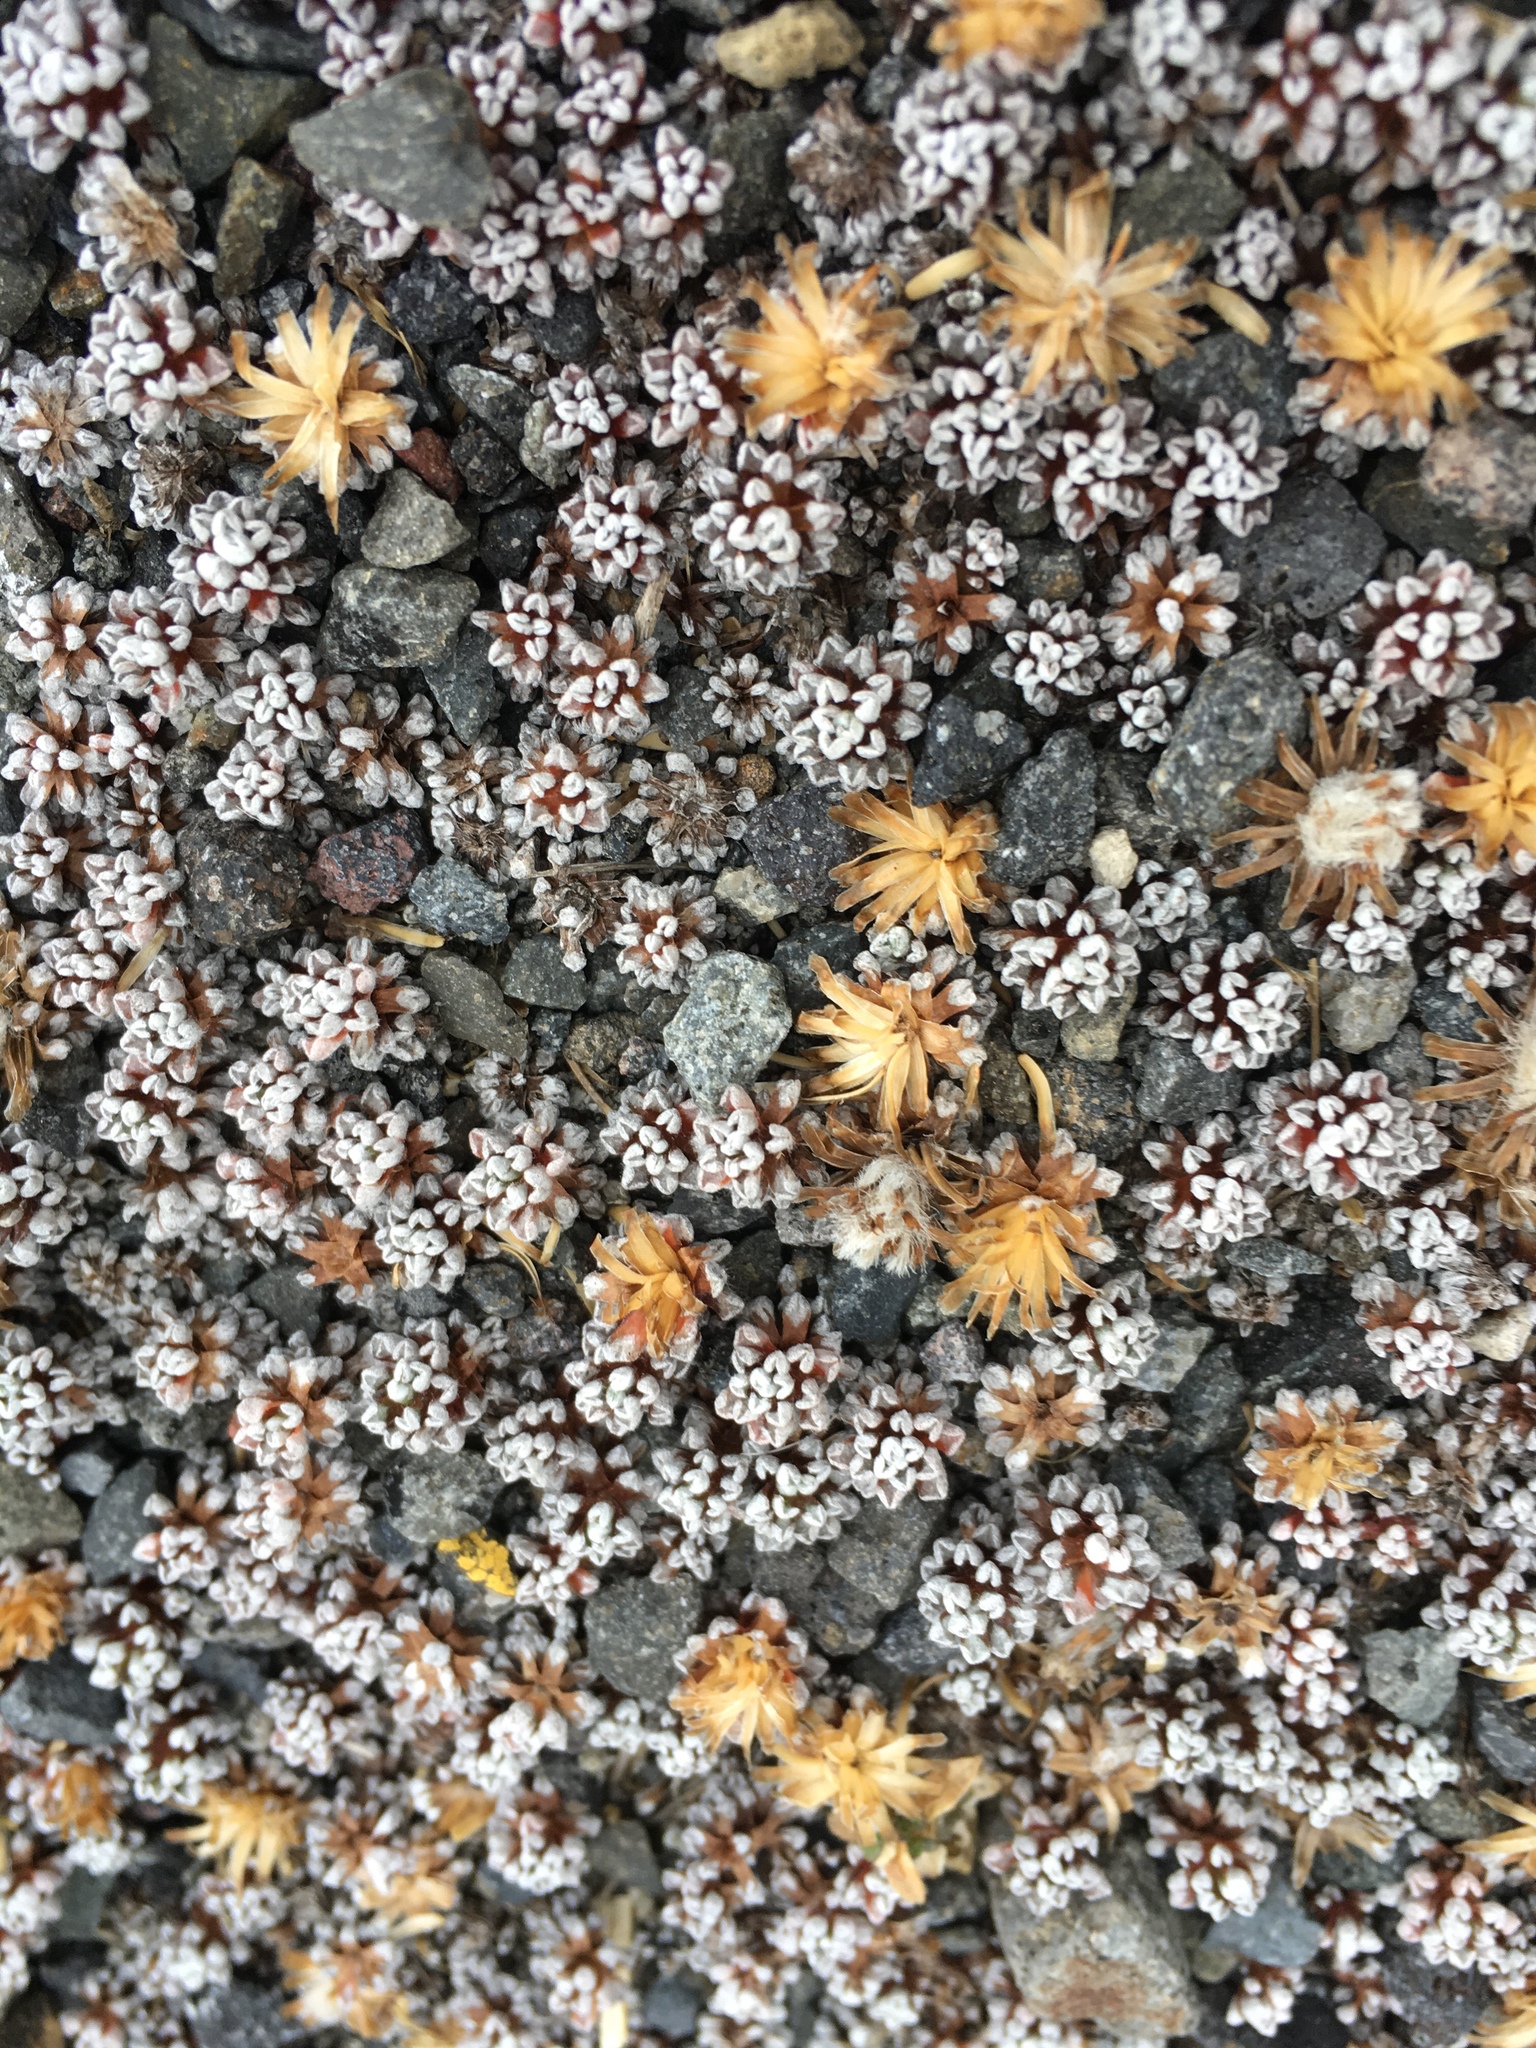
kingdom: Plantae
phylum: Tracheophyta
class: Magnoliopsida
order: Asterales
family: Asteraceae
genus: Raoulia
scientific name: Raoulia albosericea
